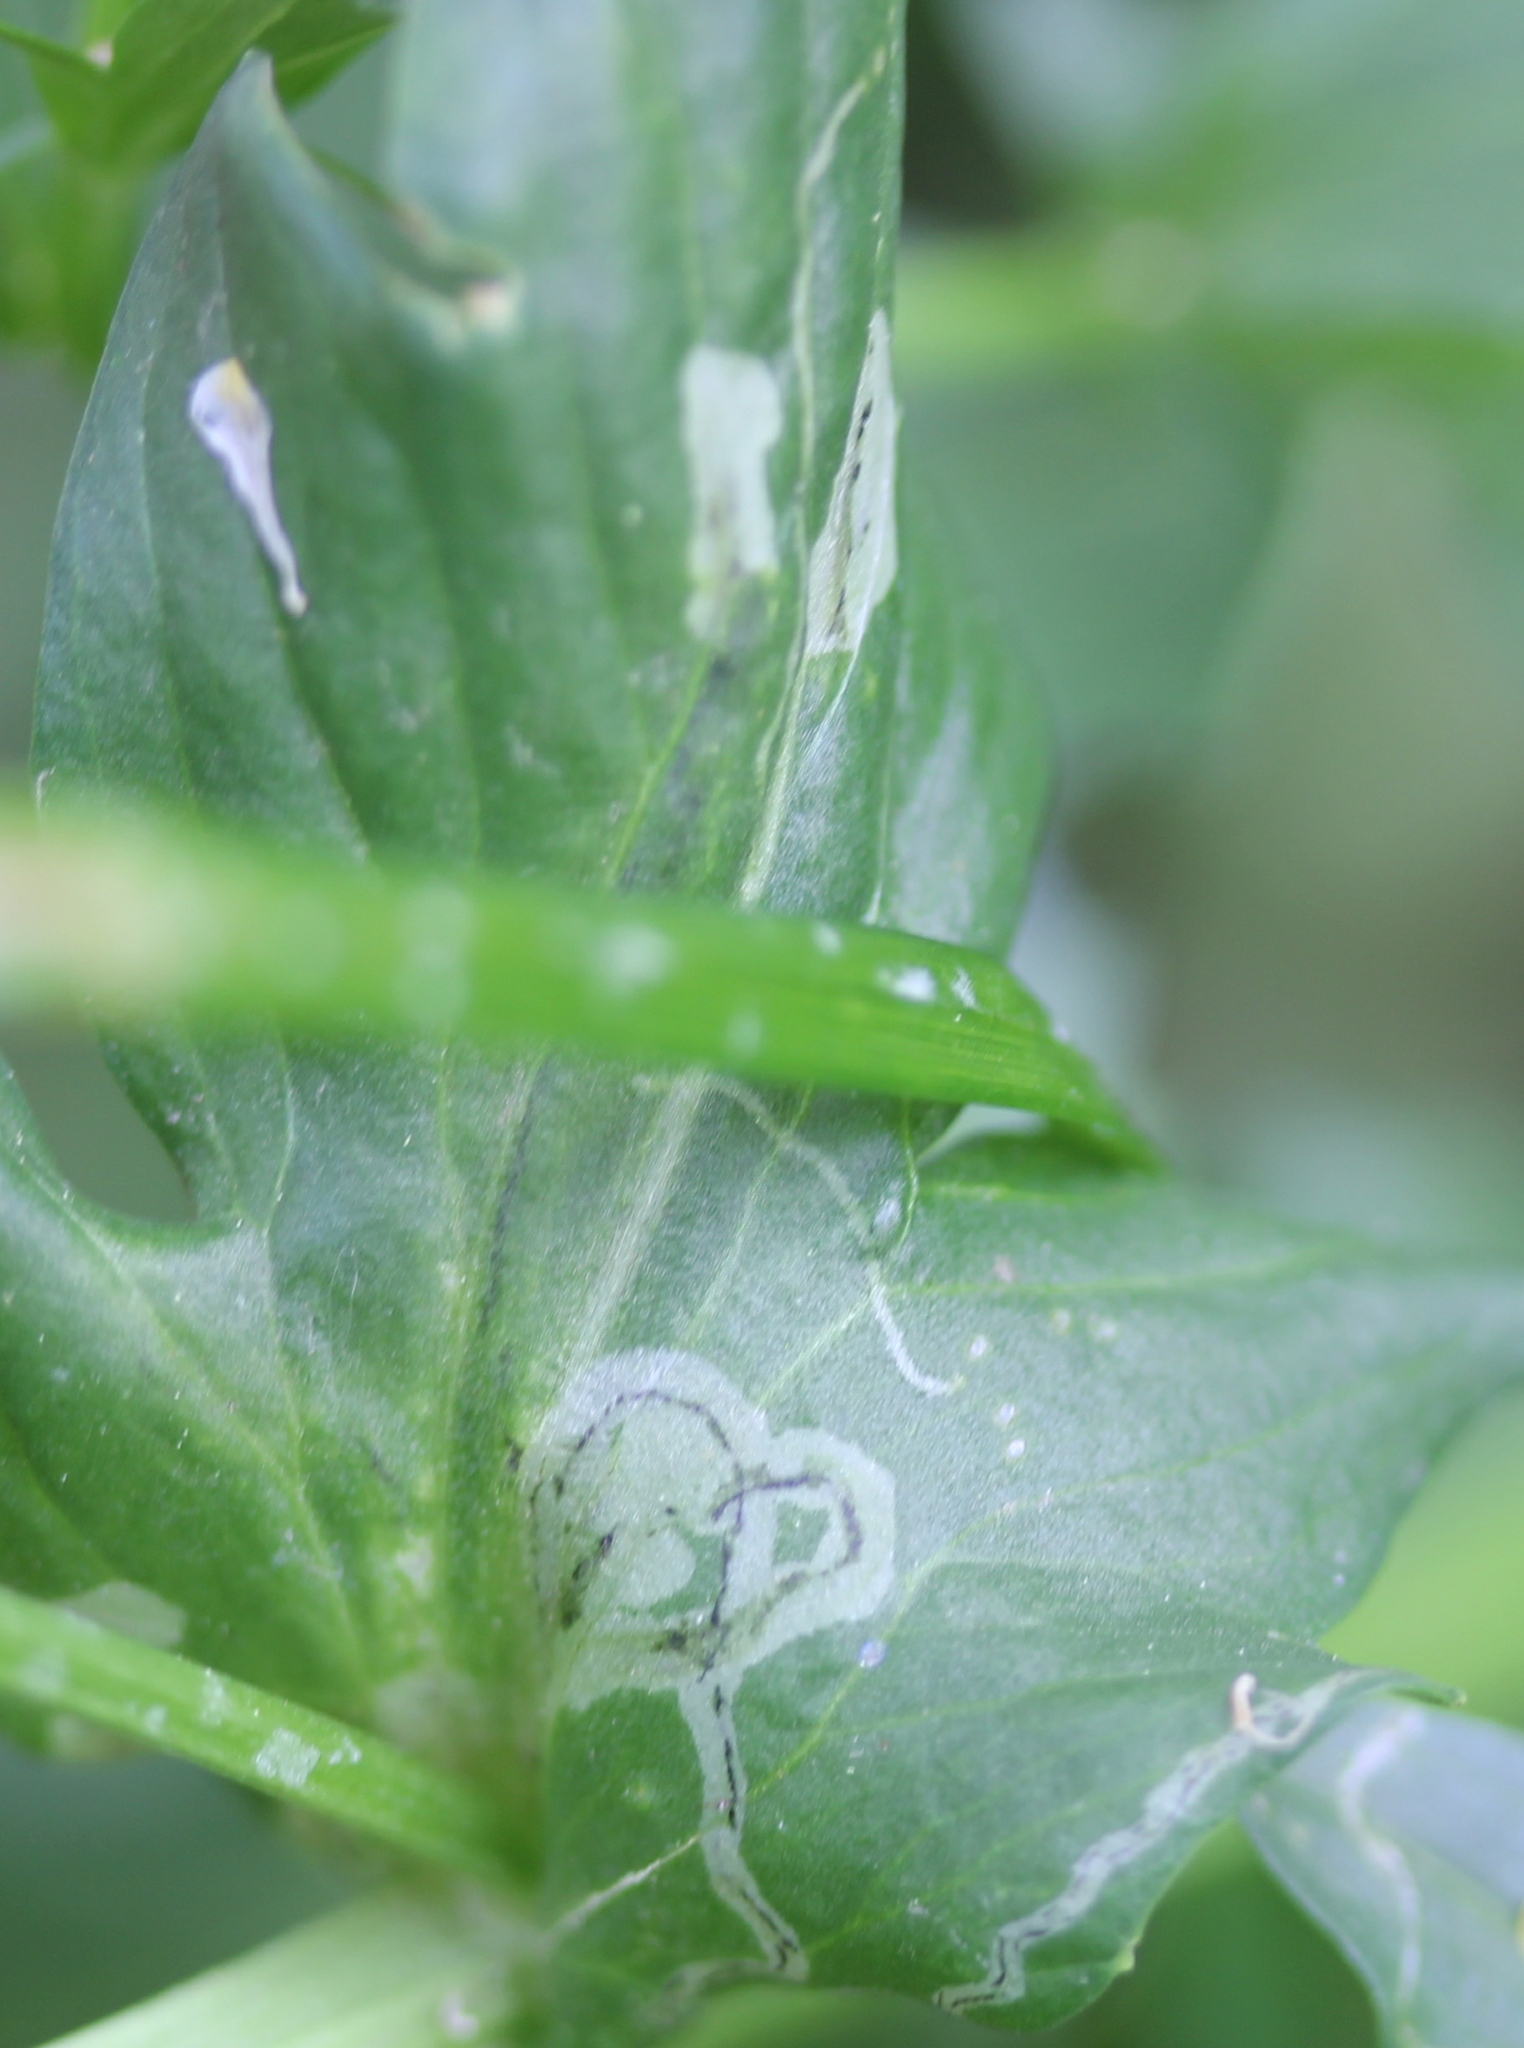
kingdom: Animalia
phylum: Arthropoda
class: Insecta
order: Diptera
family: Agromyzidae
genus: Liriomyza
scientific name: Liriomyza brassicae
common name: Serpentine leaf miner
